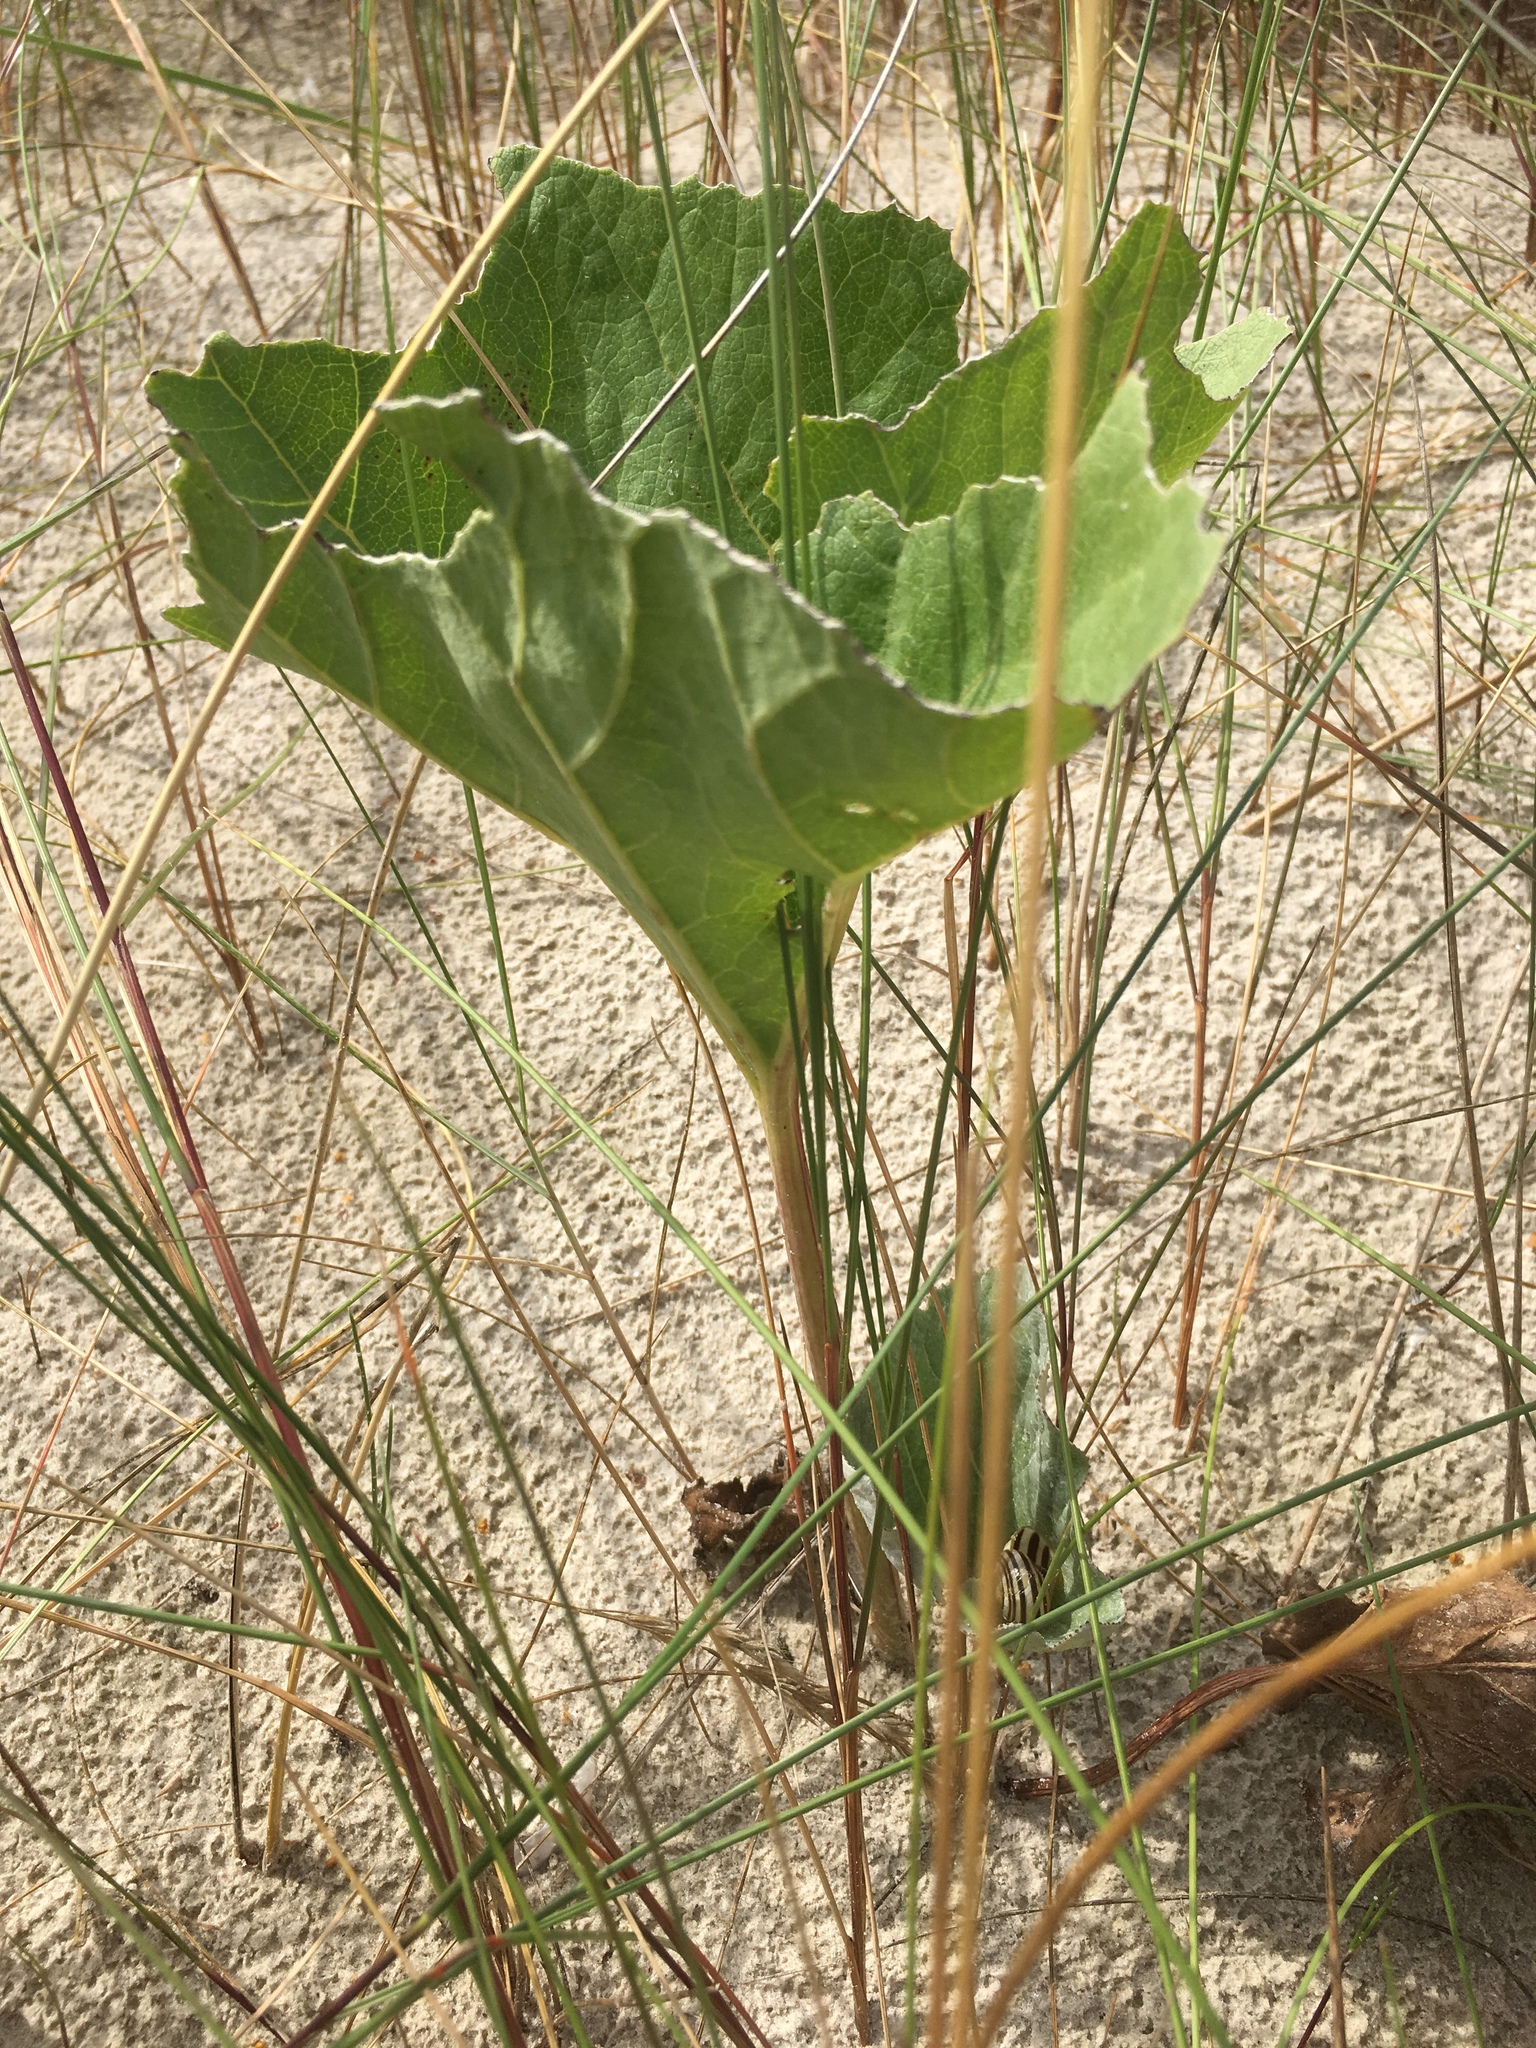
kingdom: Plantae
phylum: Tracheophyta
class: Magnoliopsida
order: Asterales
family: Asteraceae
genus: Petasites
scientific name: Petasites spurius
